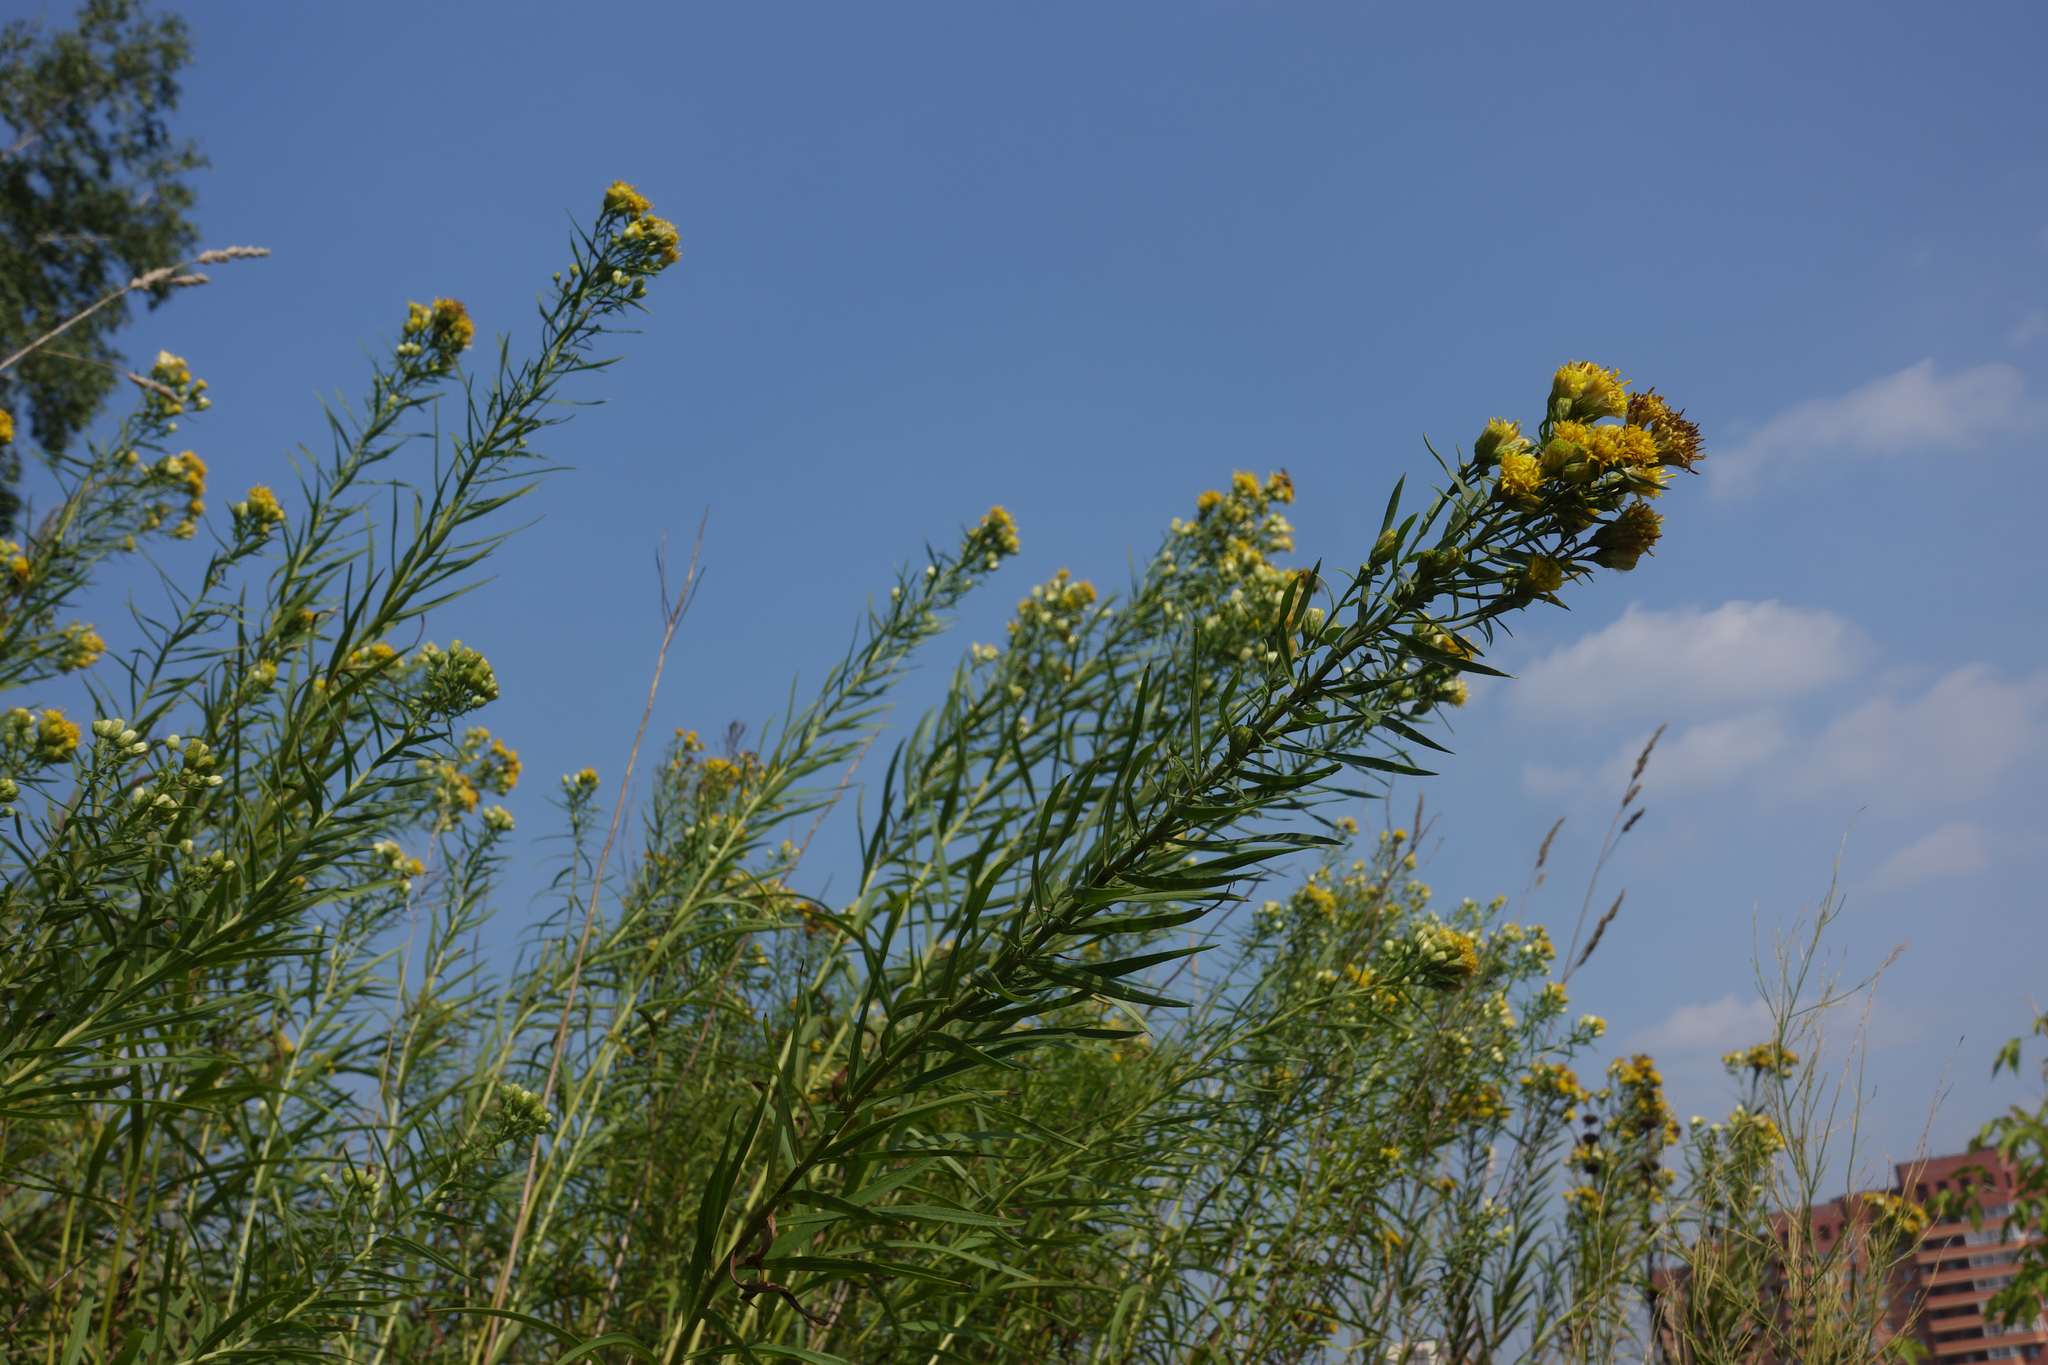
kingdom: Plantae
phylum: Tracheophyta
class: Magnoliopsida
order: Asterales
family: Asteraceae
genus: Galatella
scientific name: Galatella biflora
